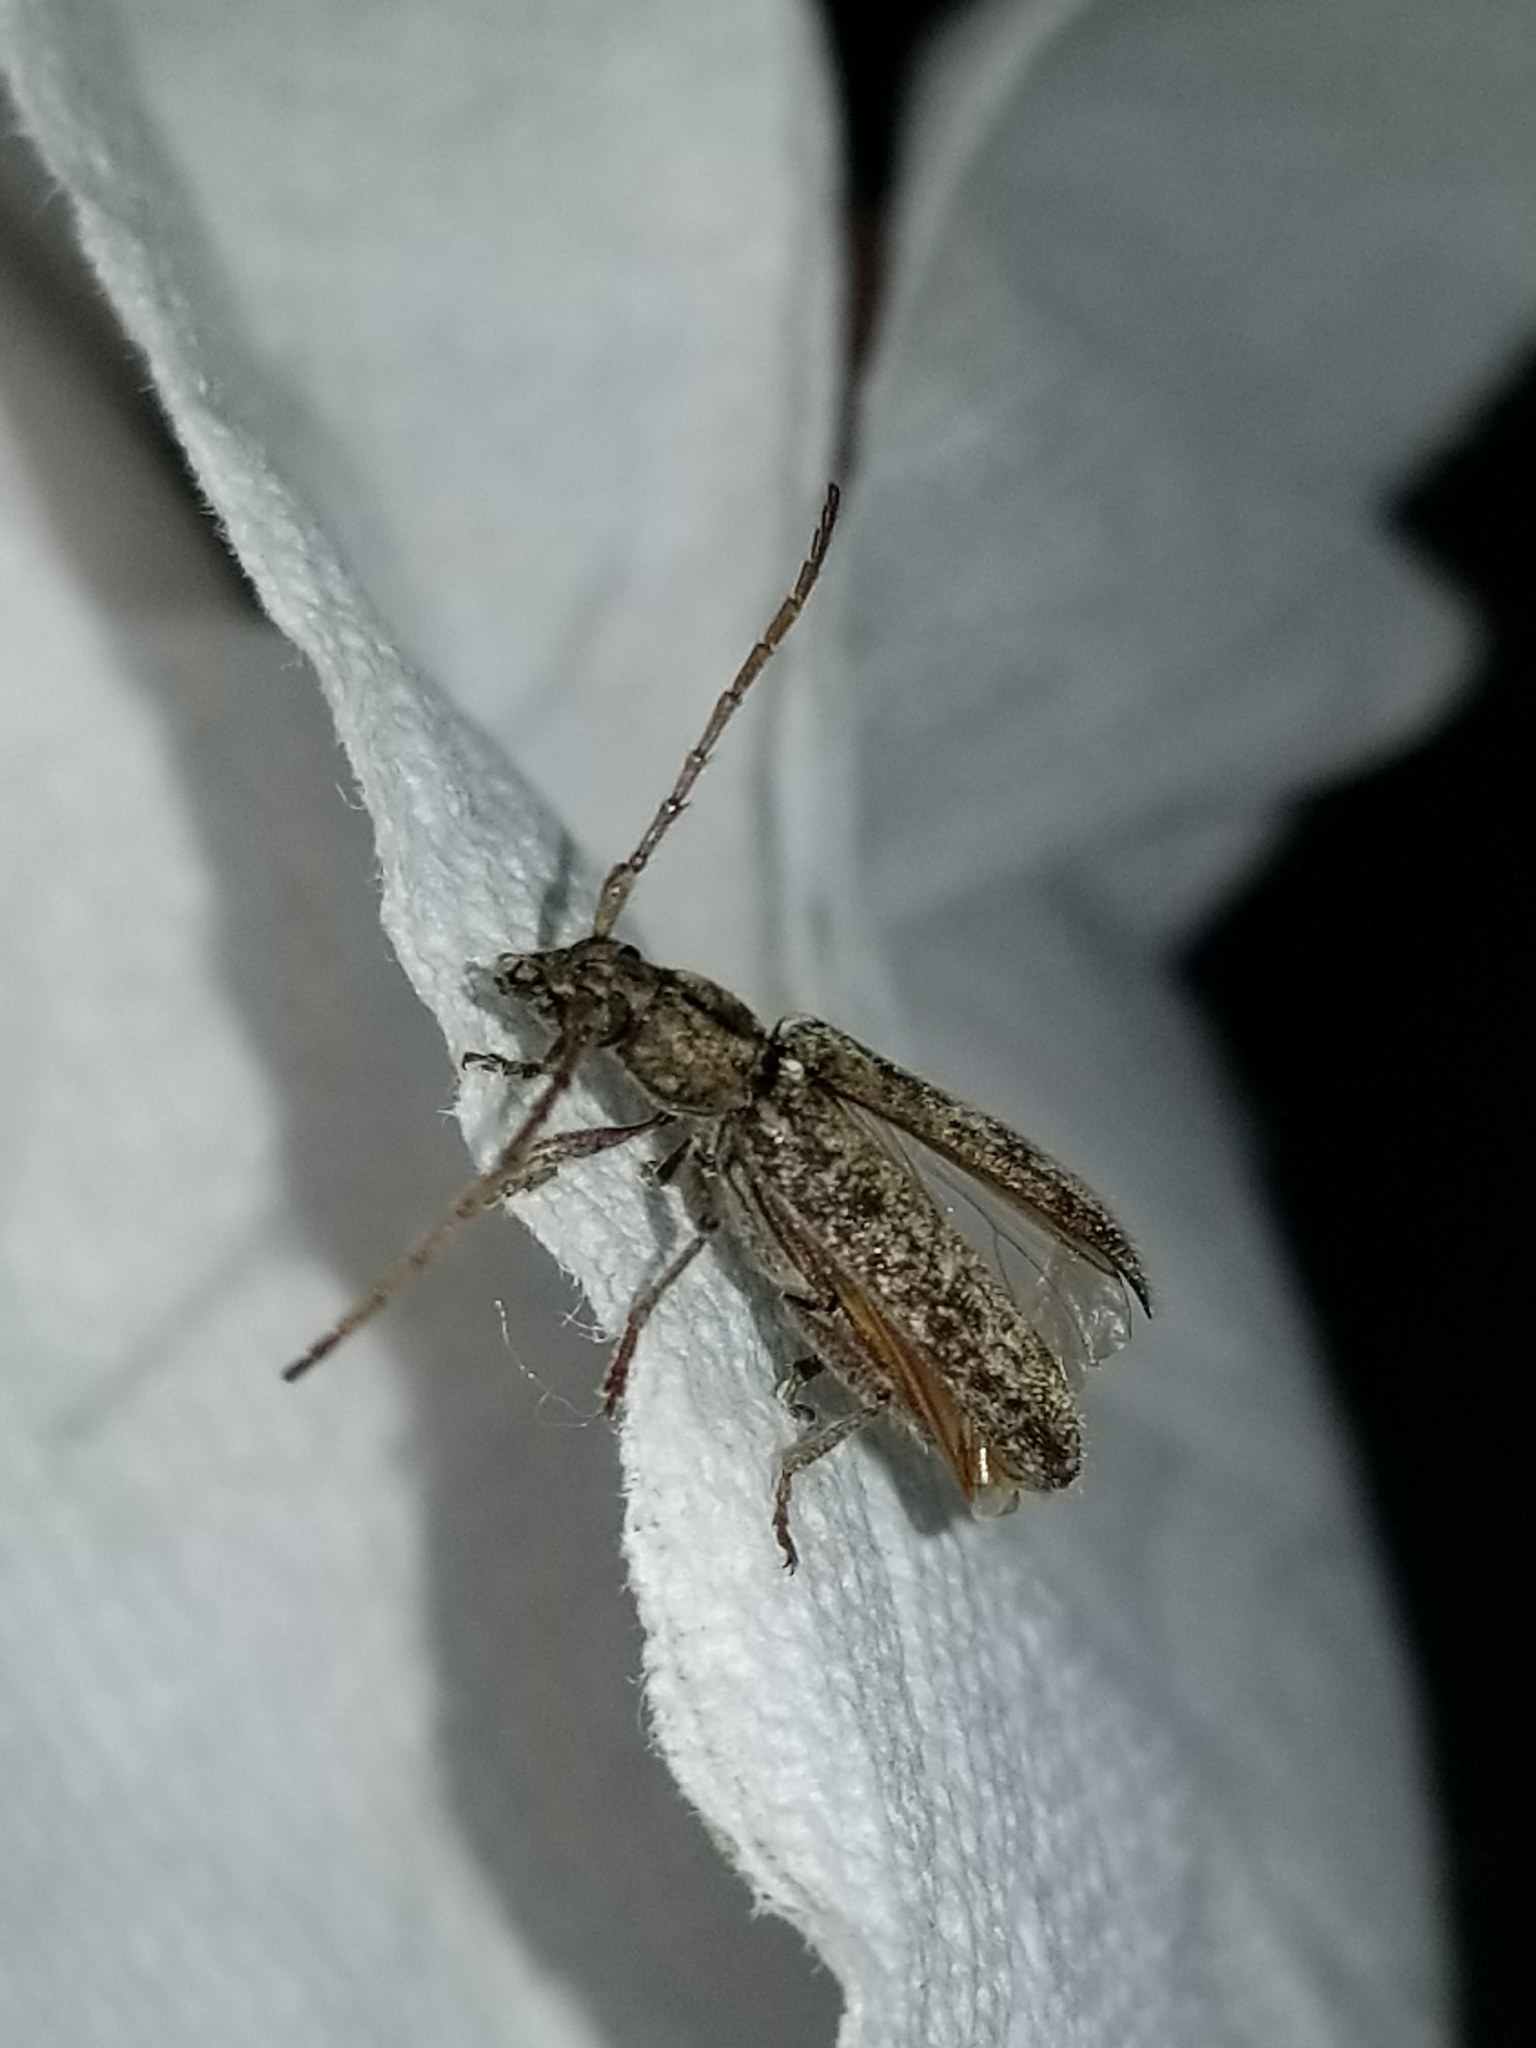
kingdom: Animalia
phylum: Arthropoda
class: Insecta
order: Coleoptera
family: Cerambycidae
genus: Anelaphus
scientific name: Anelaphus debilis
